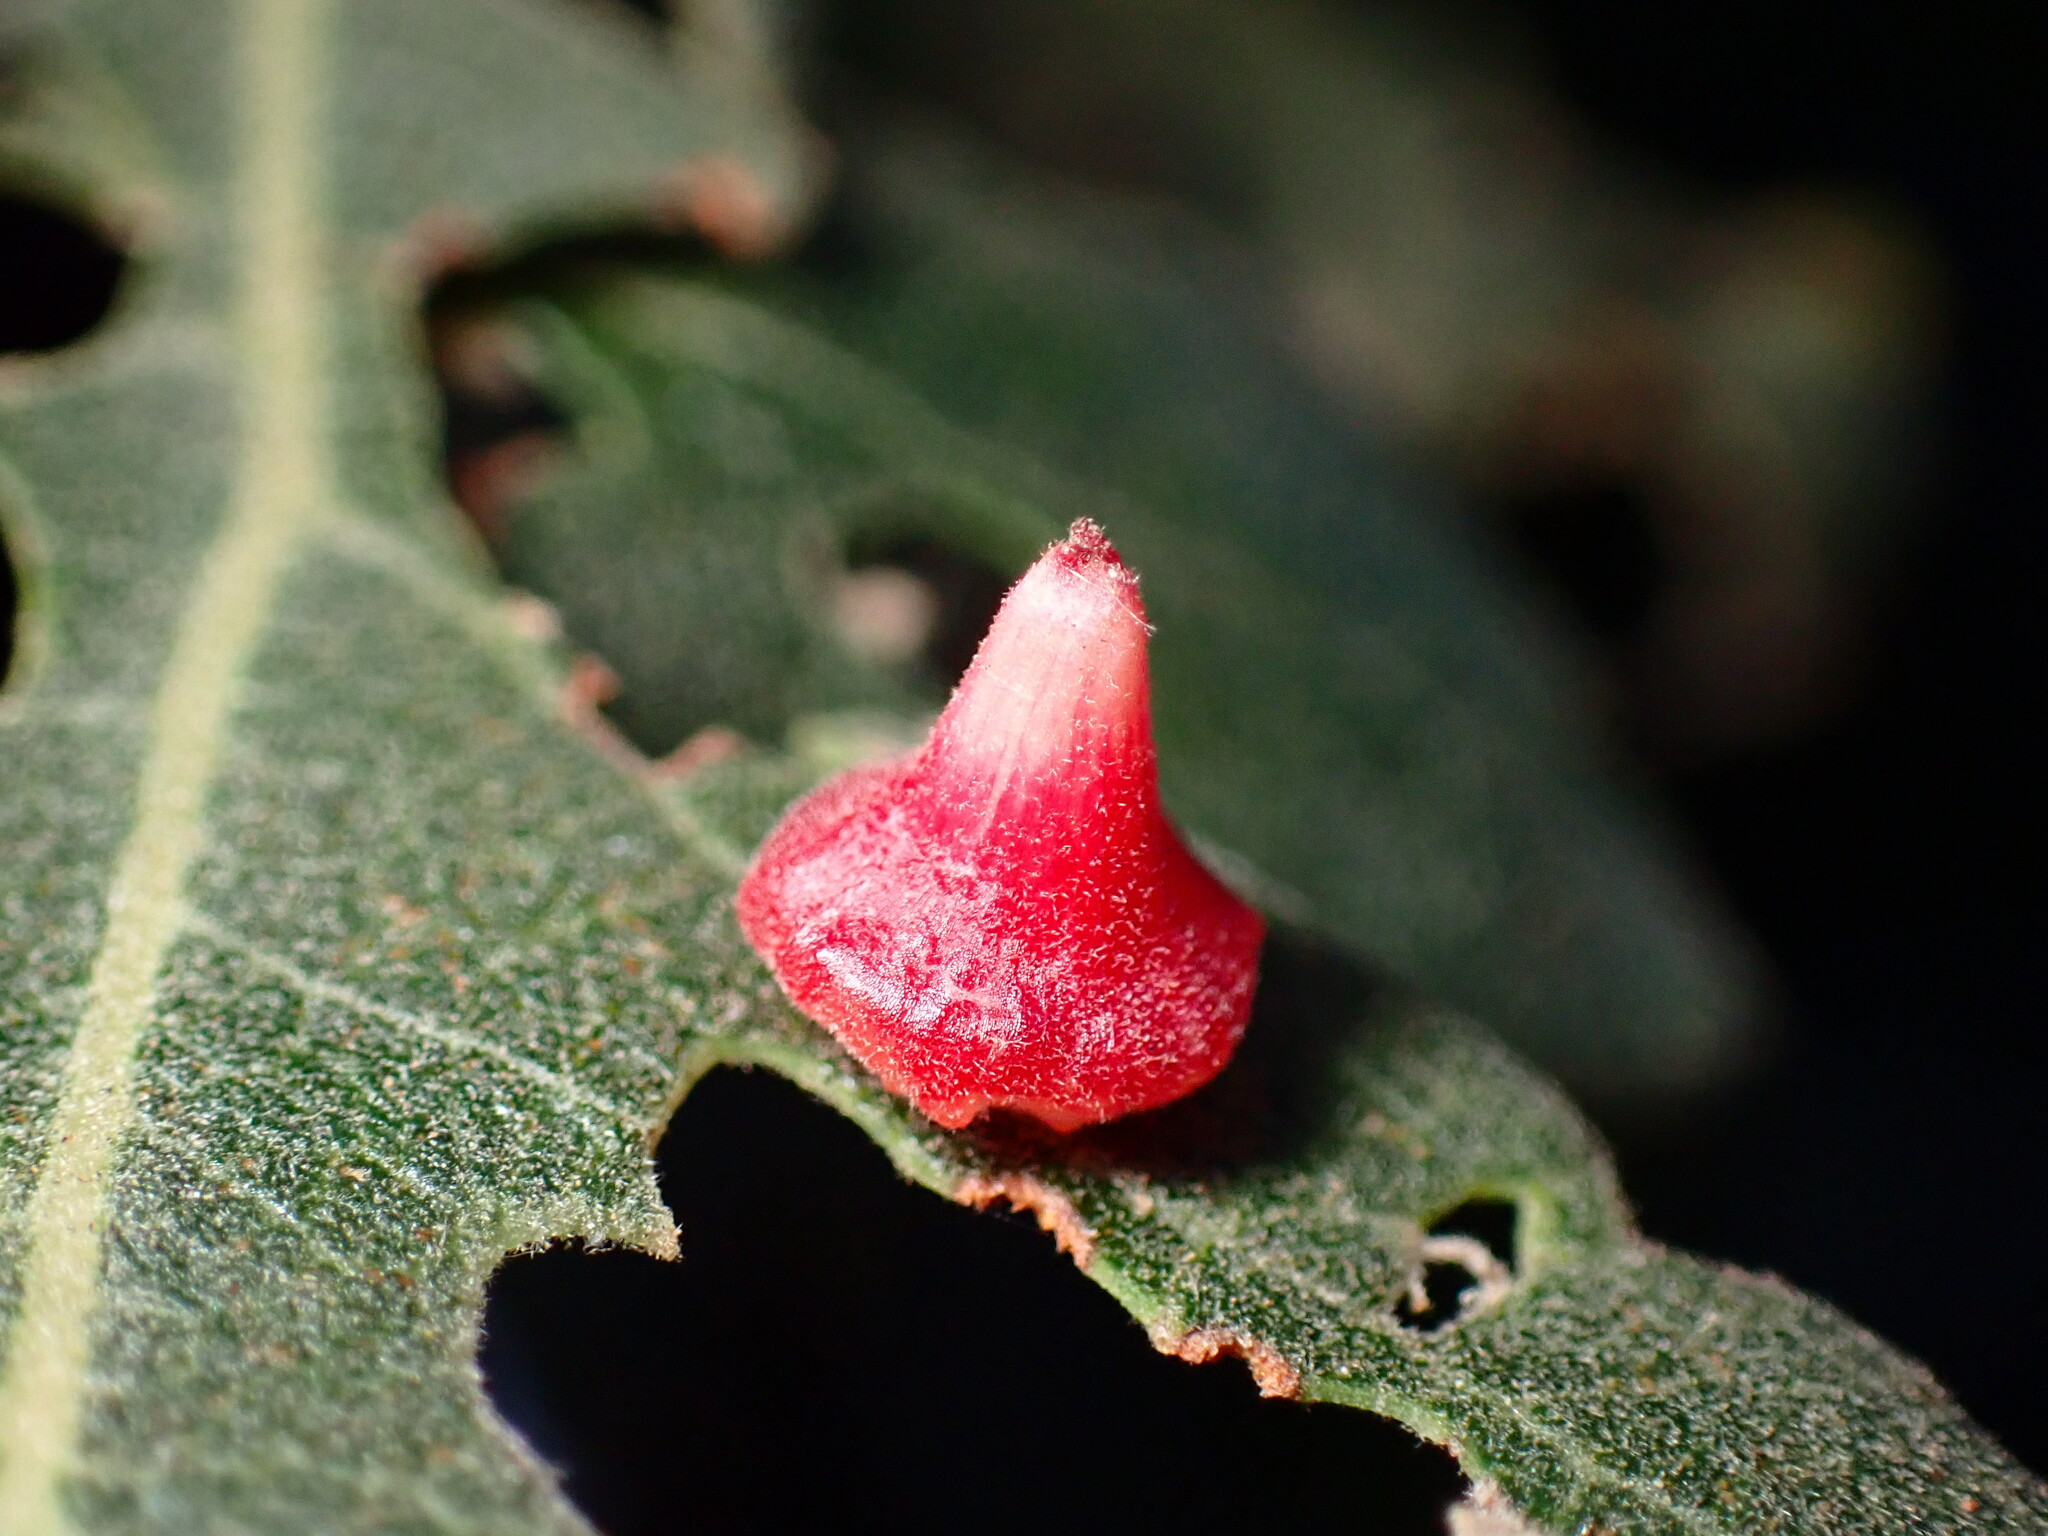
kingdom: Animalia
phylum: Arthropoda
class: Insecta
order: Hymenoptera
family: Cynipidae
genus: Andricus
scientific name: Andricus
